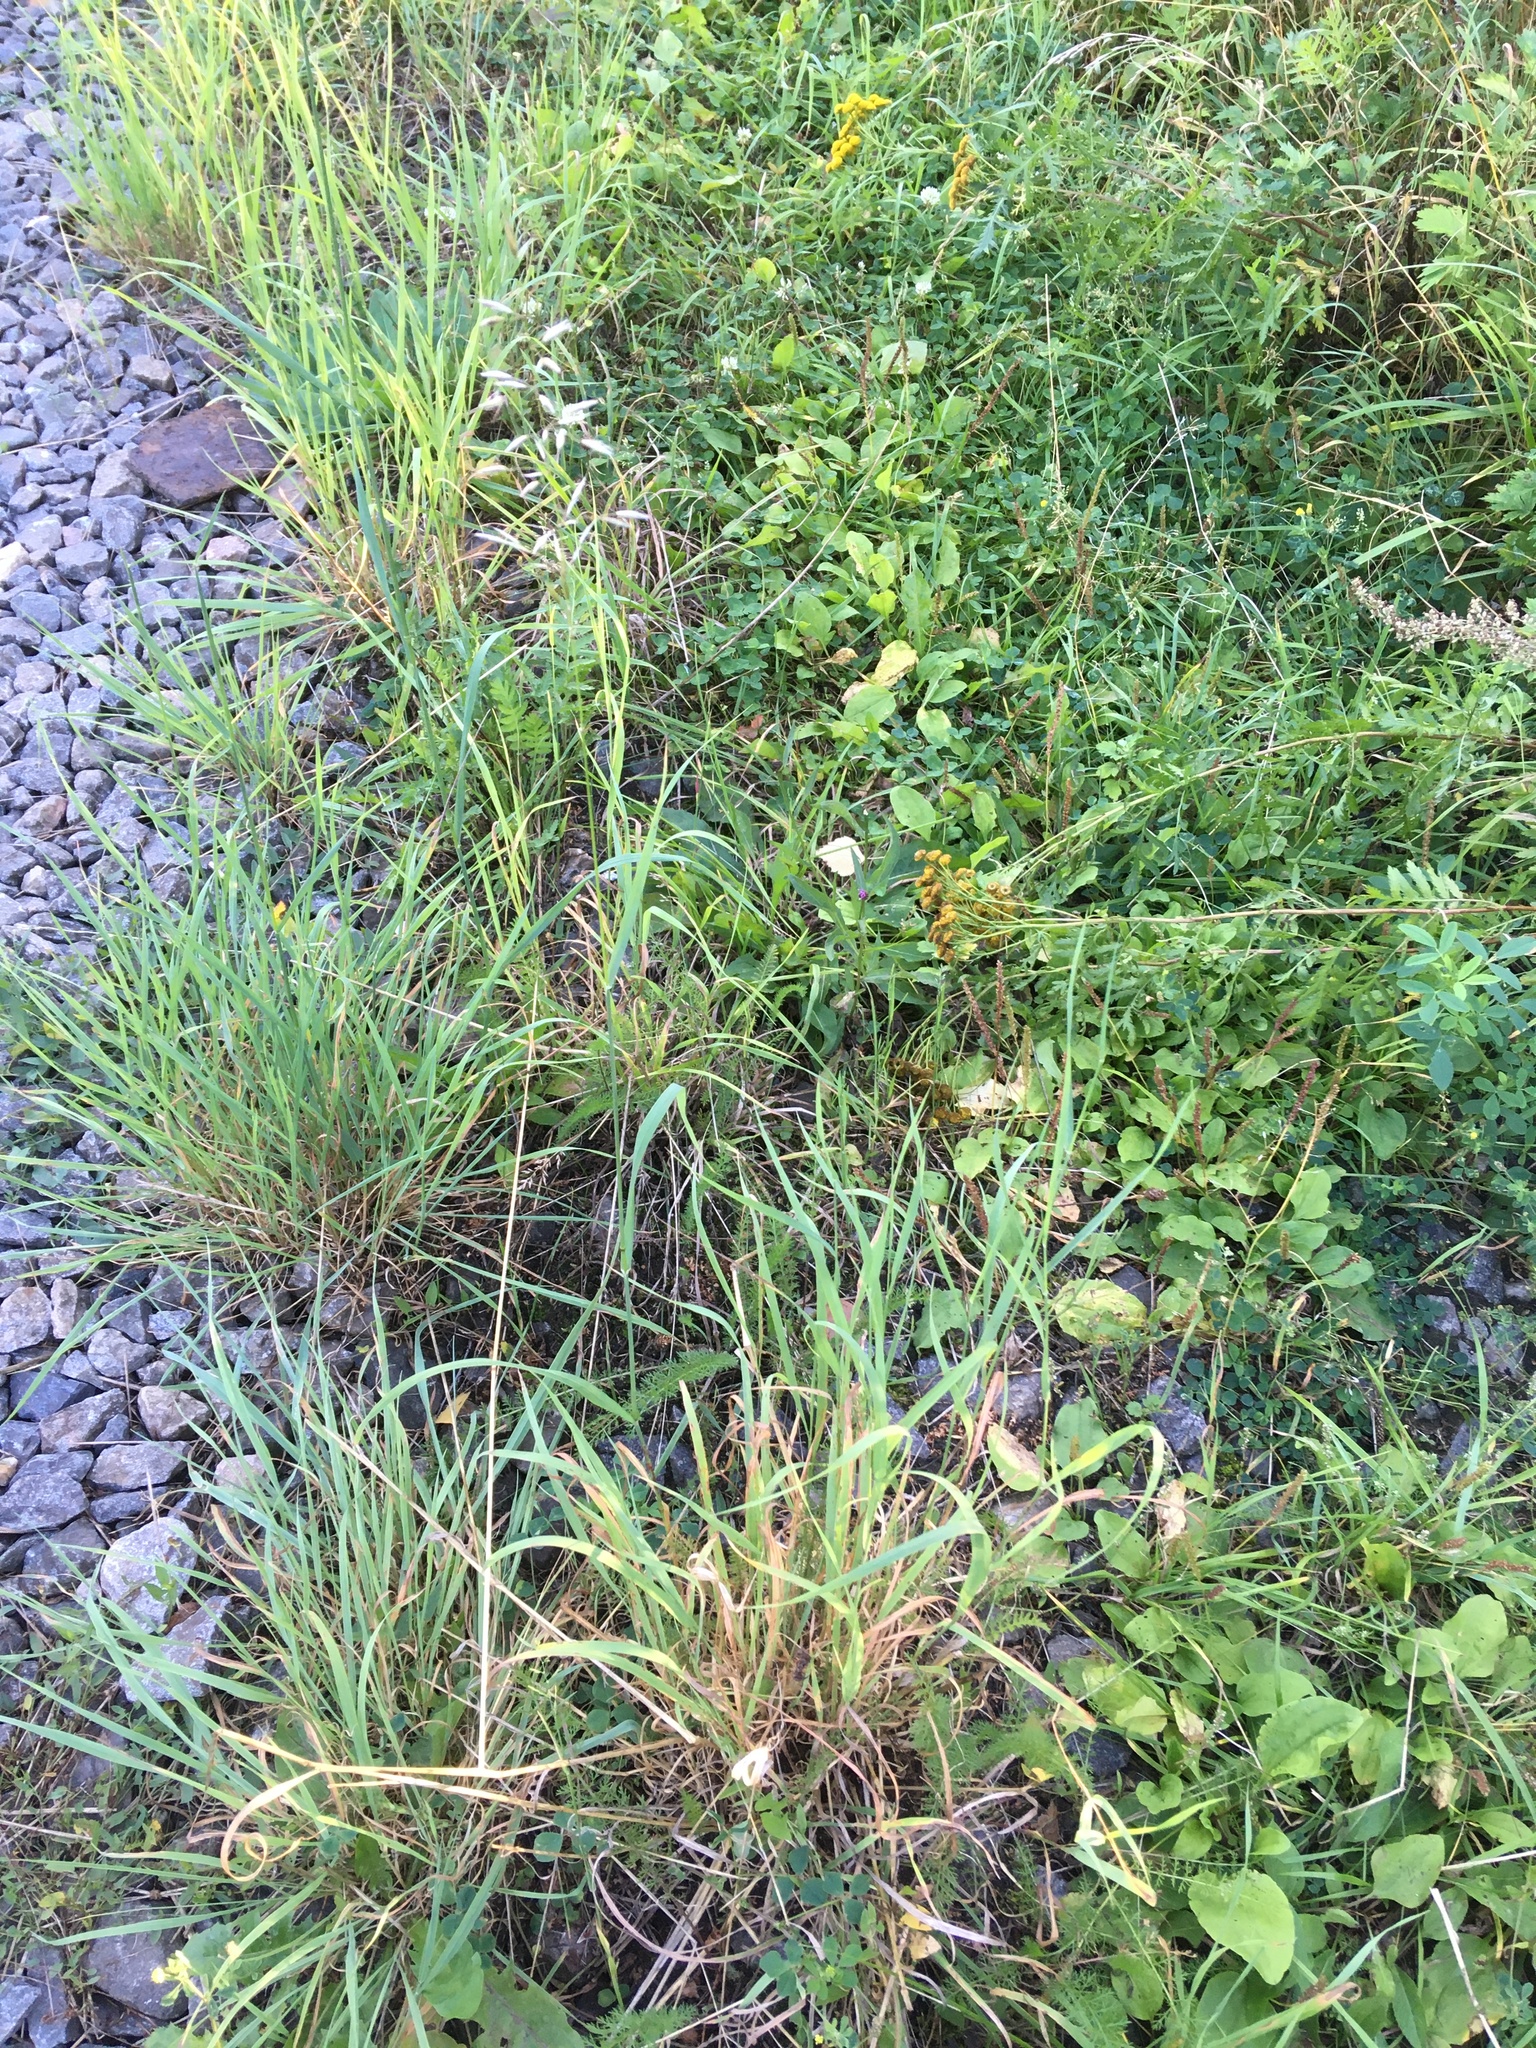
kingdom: Plantae
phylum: Tracheophyta
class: Liliopsida
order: Poales
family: Poaceae
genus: Arrhenatherum
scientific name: Arrhenatherum elatius
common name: Tall oatgrass
